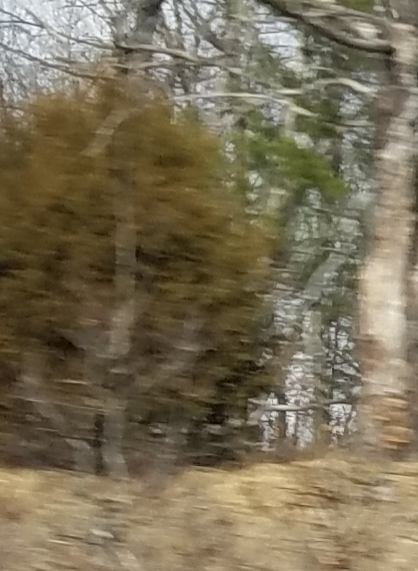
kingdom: Plantae
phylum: Tracheophyta
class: Pinopsida
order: Pinales
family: Cupressaceae
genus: Juniperus
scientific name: Juniperus virginiana
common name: Red juniper
